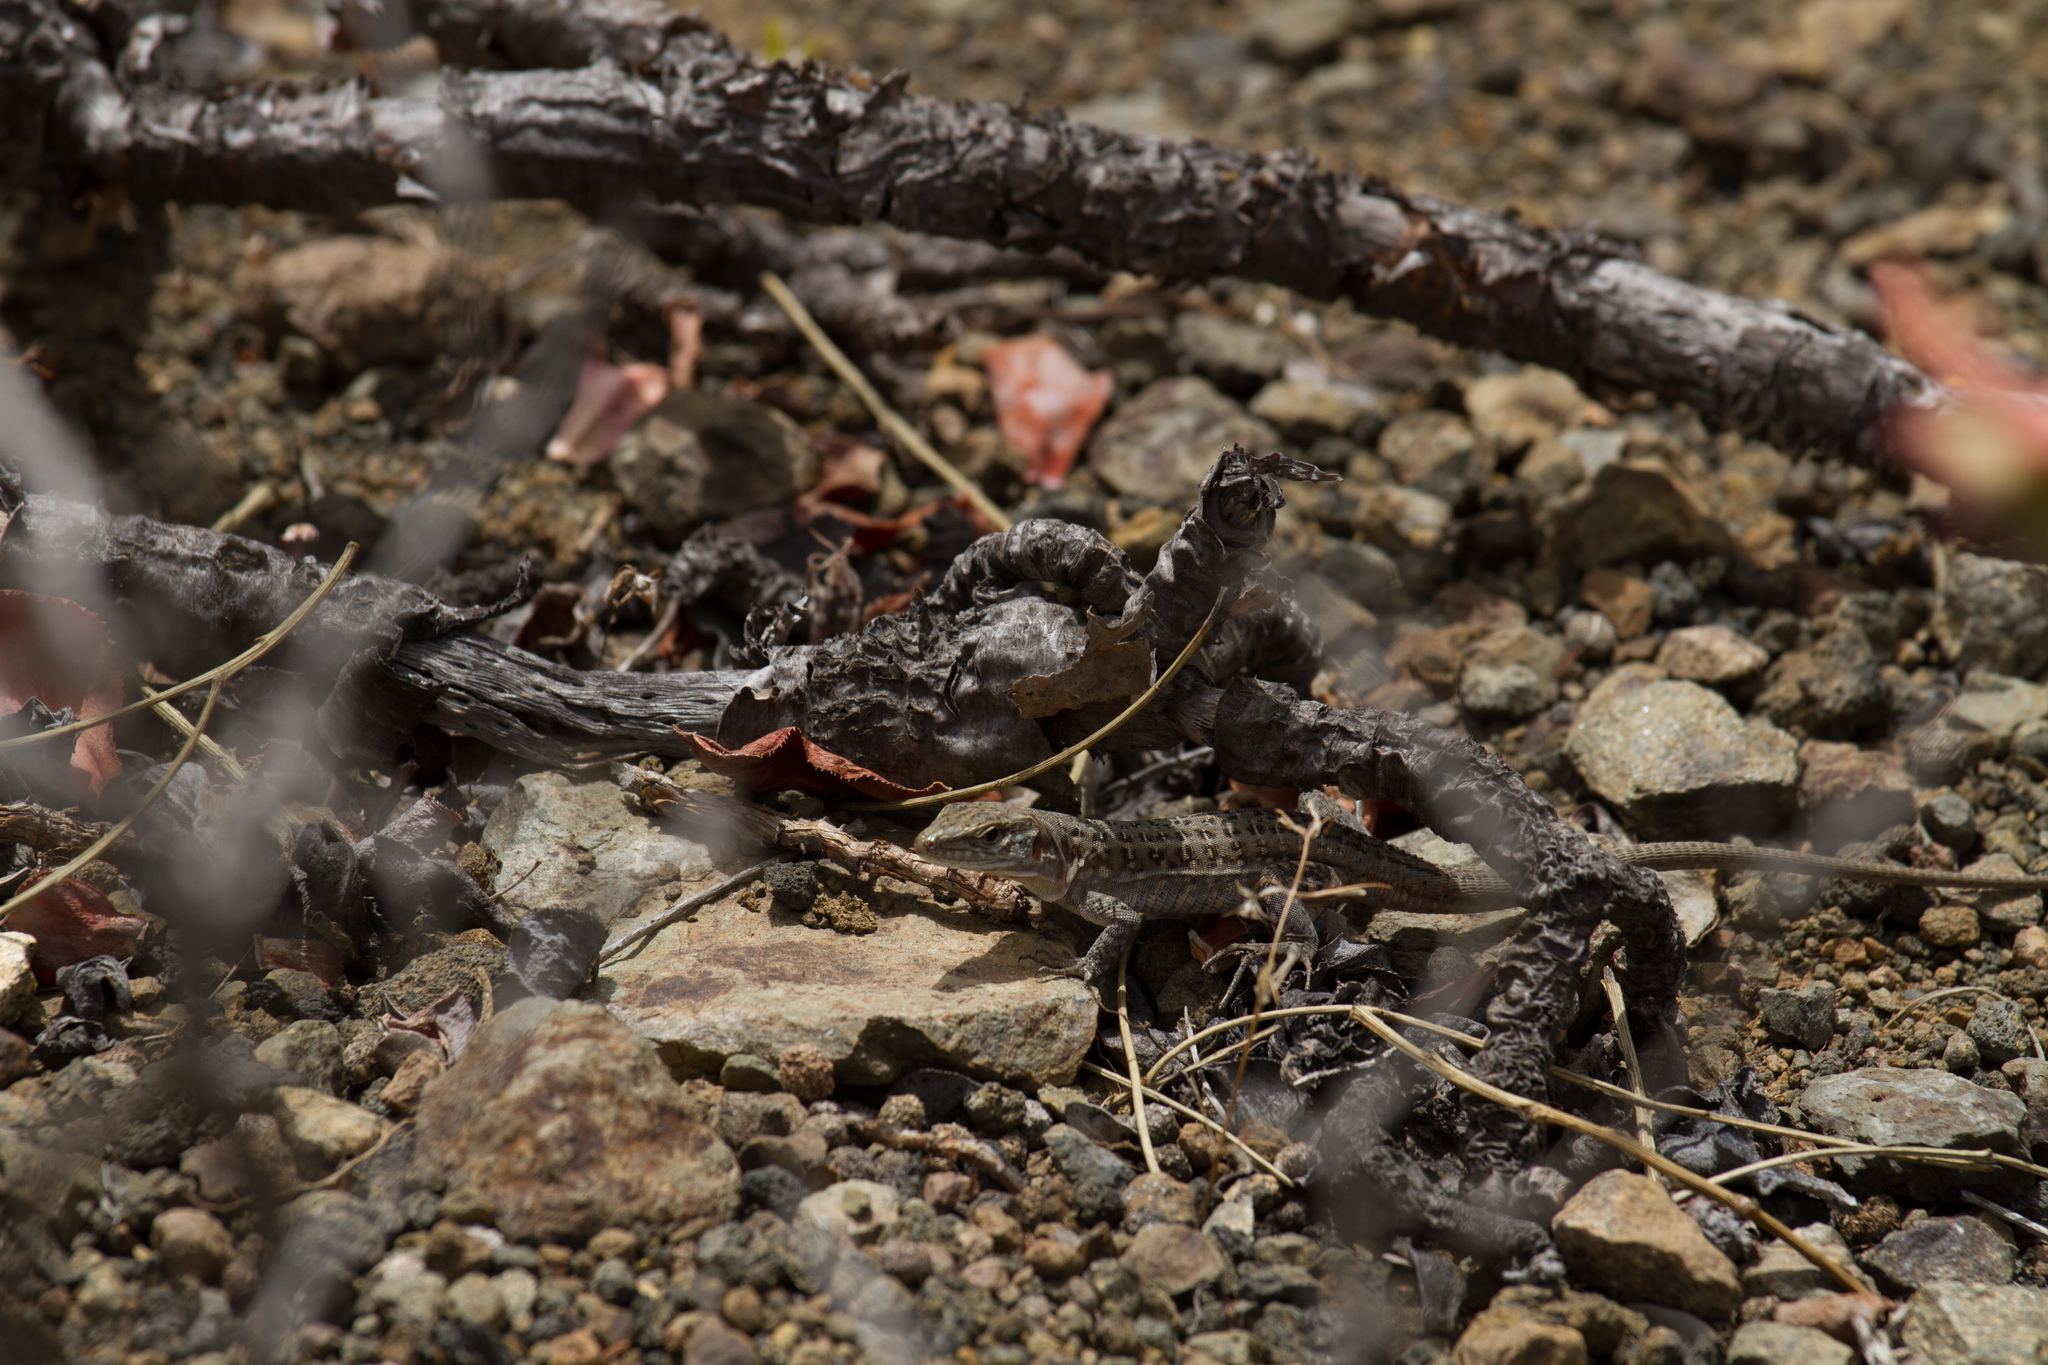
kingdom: Animalia
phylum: Chordata
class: Squamata
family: Lacertidae
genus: Gallotia
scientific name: Gallotia stehlini
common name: Gran canaria giant lizard
